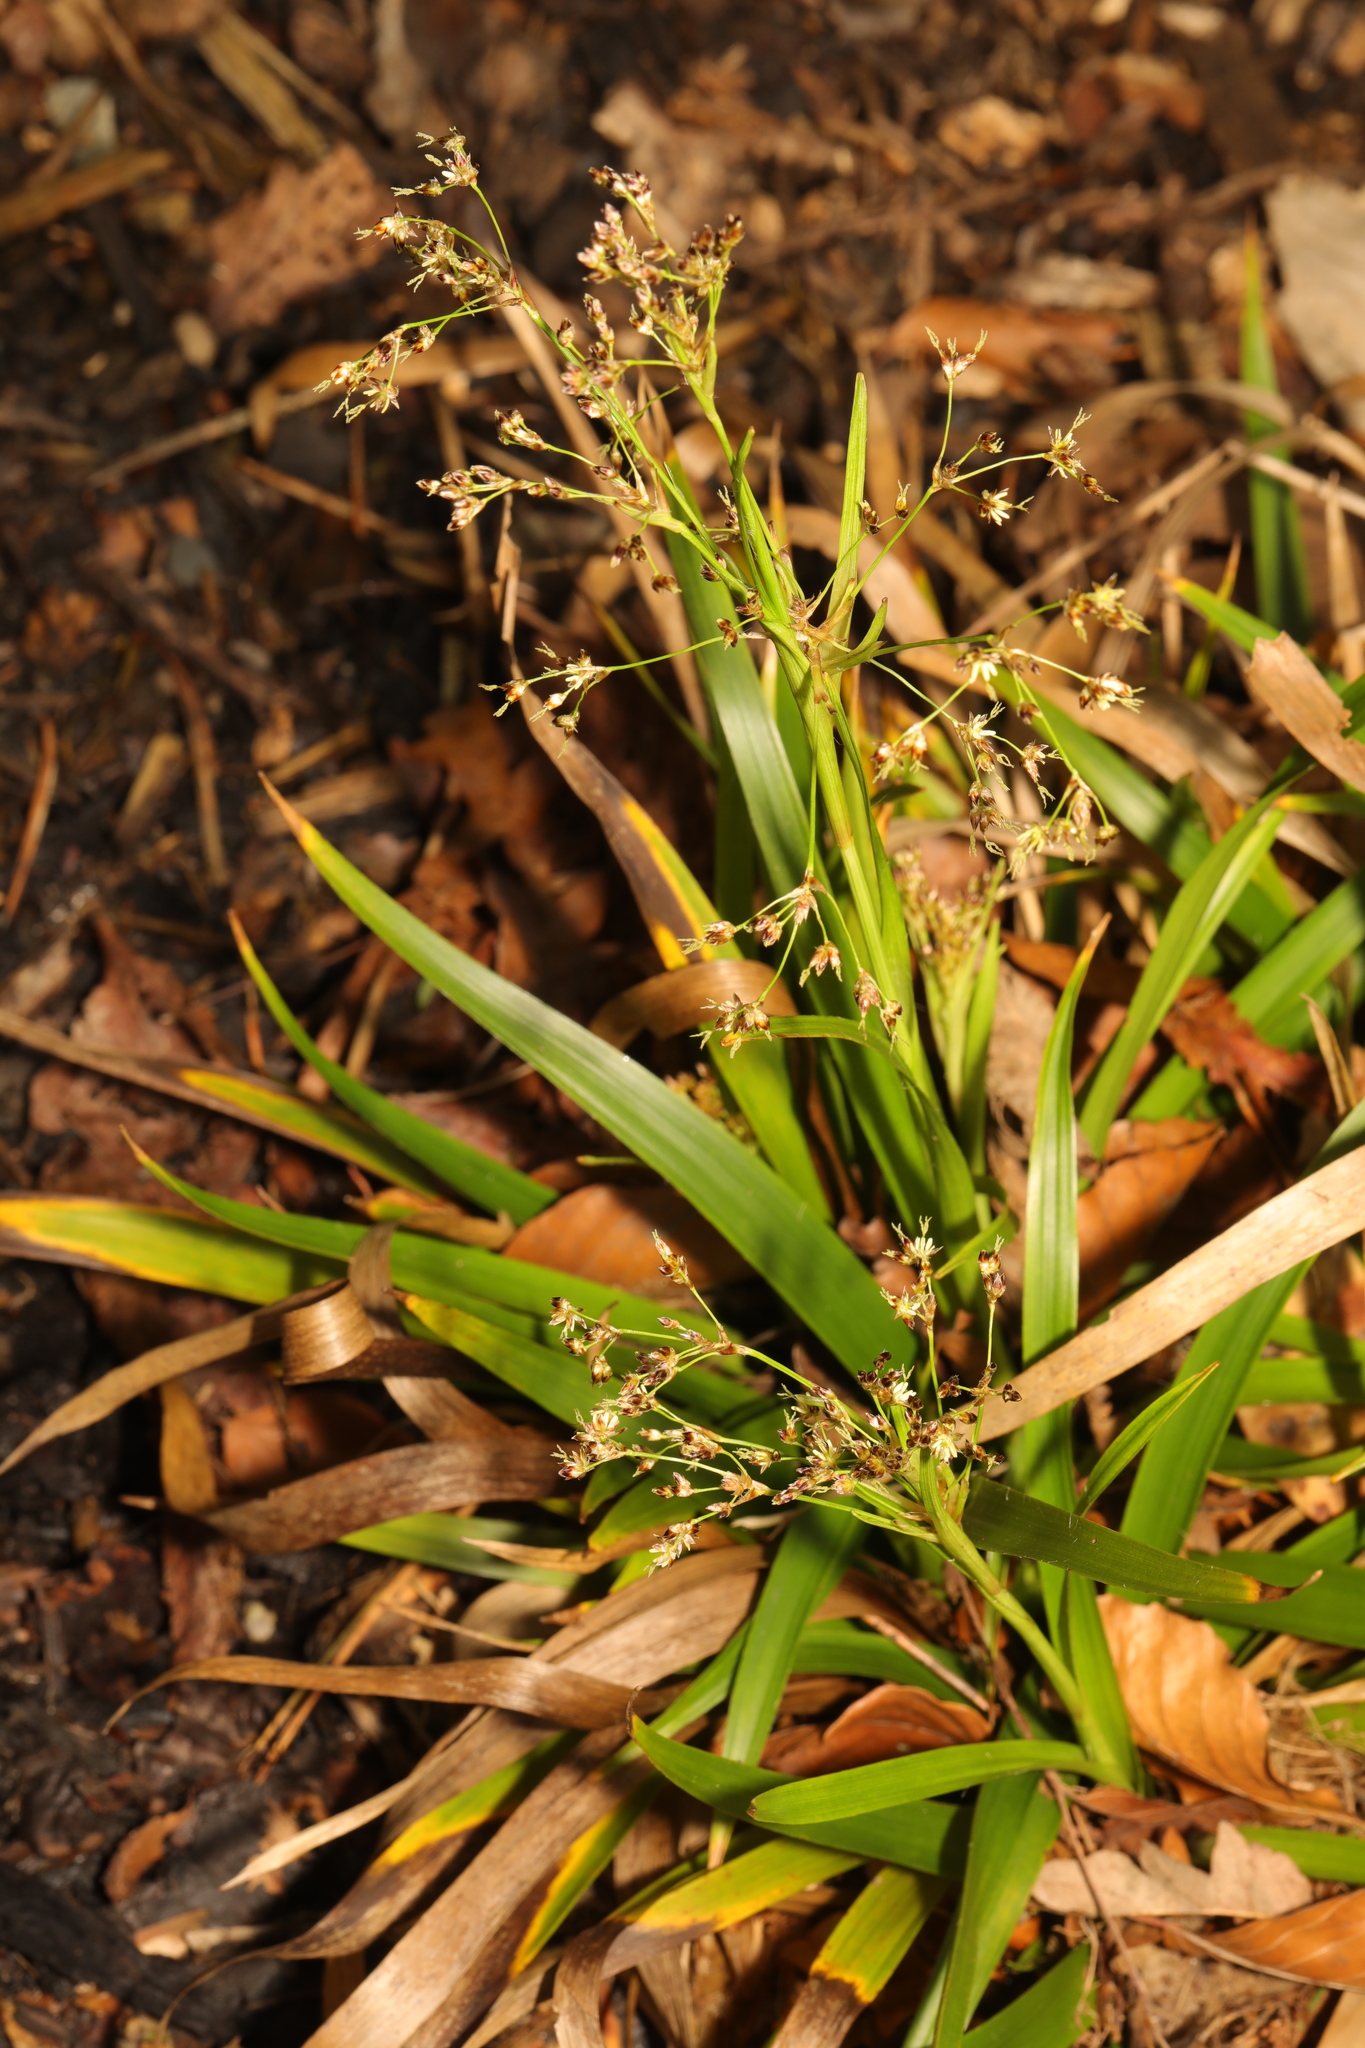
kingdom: Plantae
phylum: Tracheophyta
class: Liliopsida
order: Poales
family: Juncaceae
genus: Luzula
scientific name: Luzula sylvatica
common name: Great wood-rush
